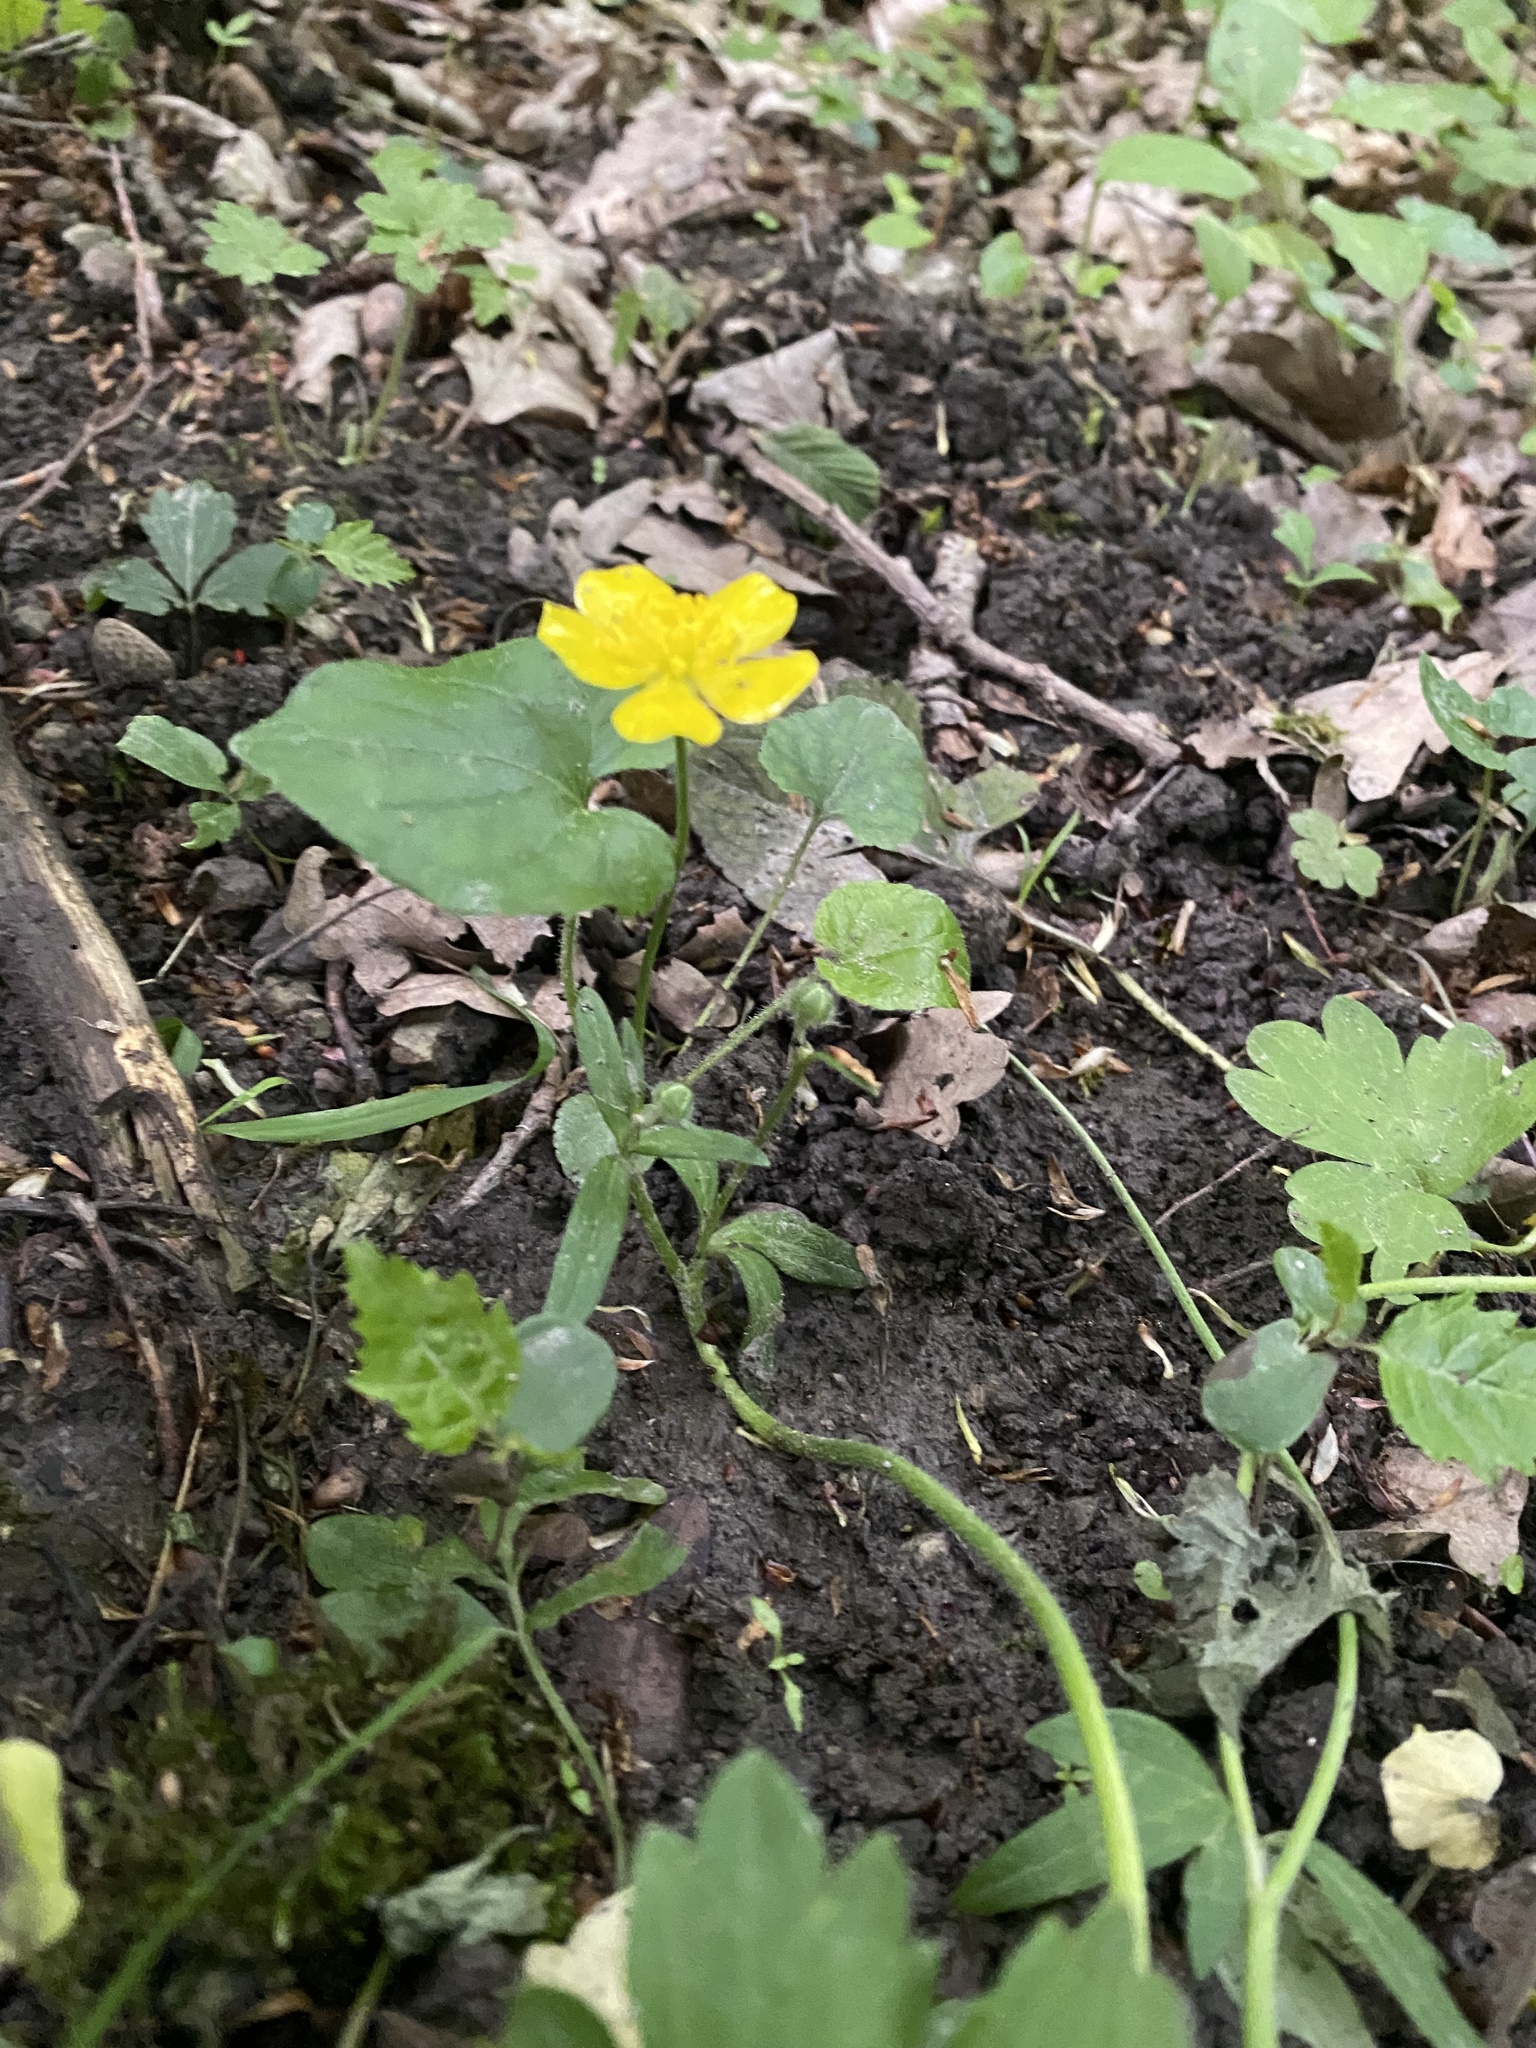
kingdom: Plantae
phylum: Tracheophyta
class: Magnoliopsida
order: Ranunculales
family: Ranunculaceae
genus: Ficaria
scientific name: Ficaria verna
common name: Lesser celandine
